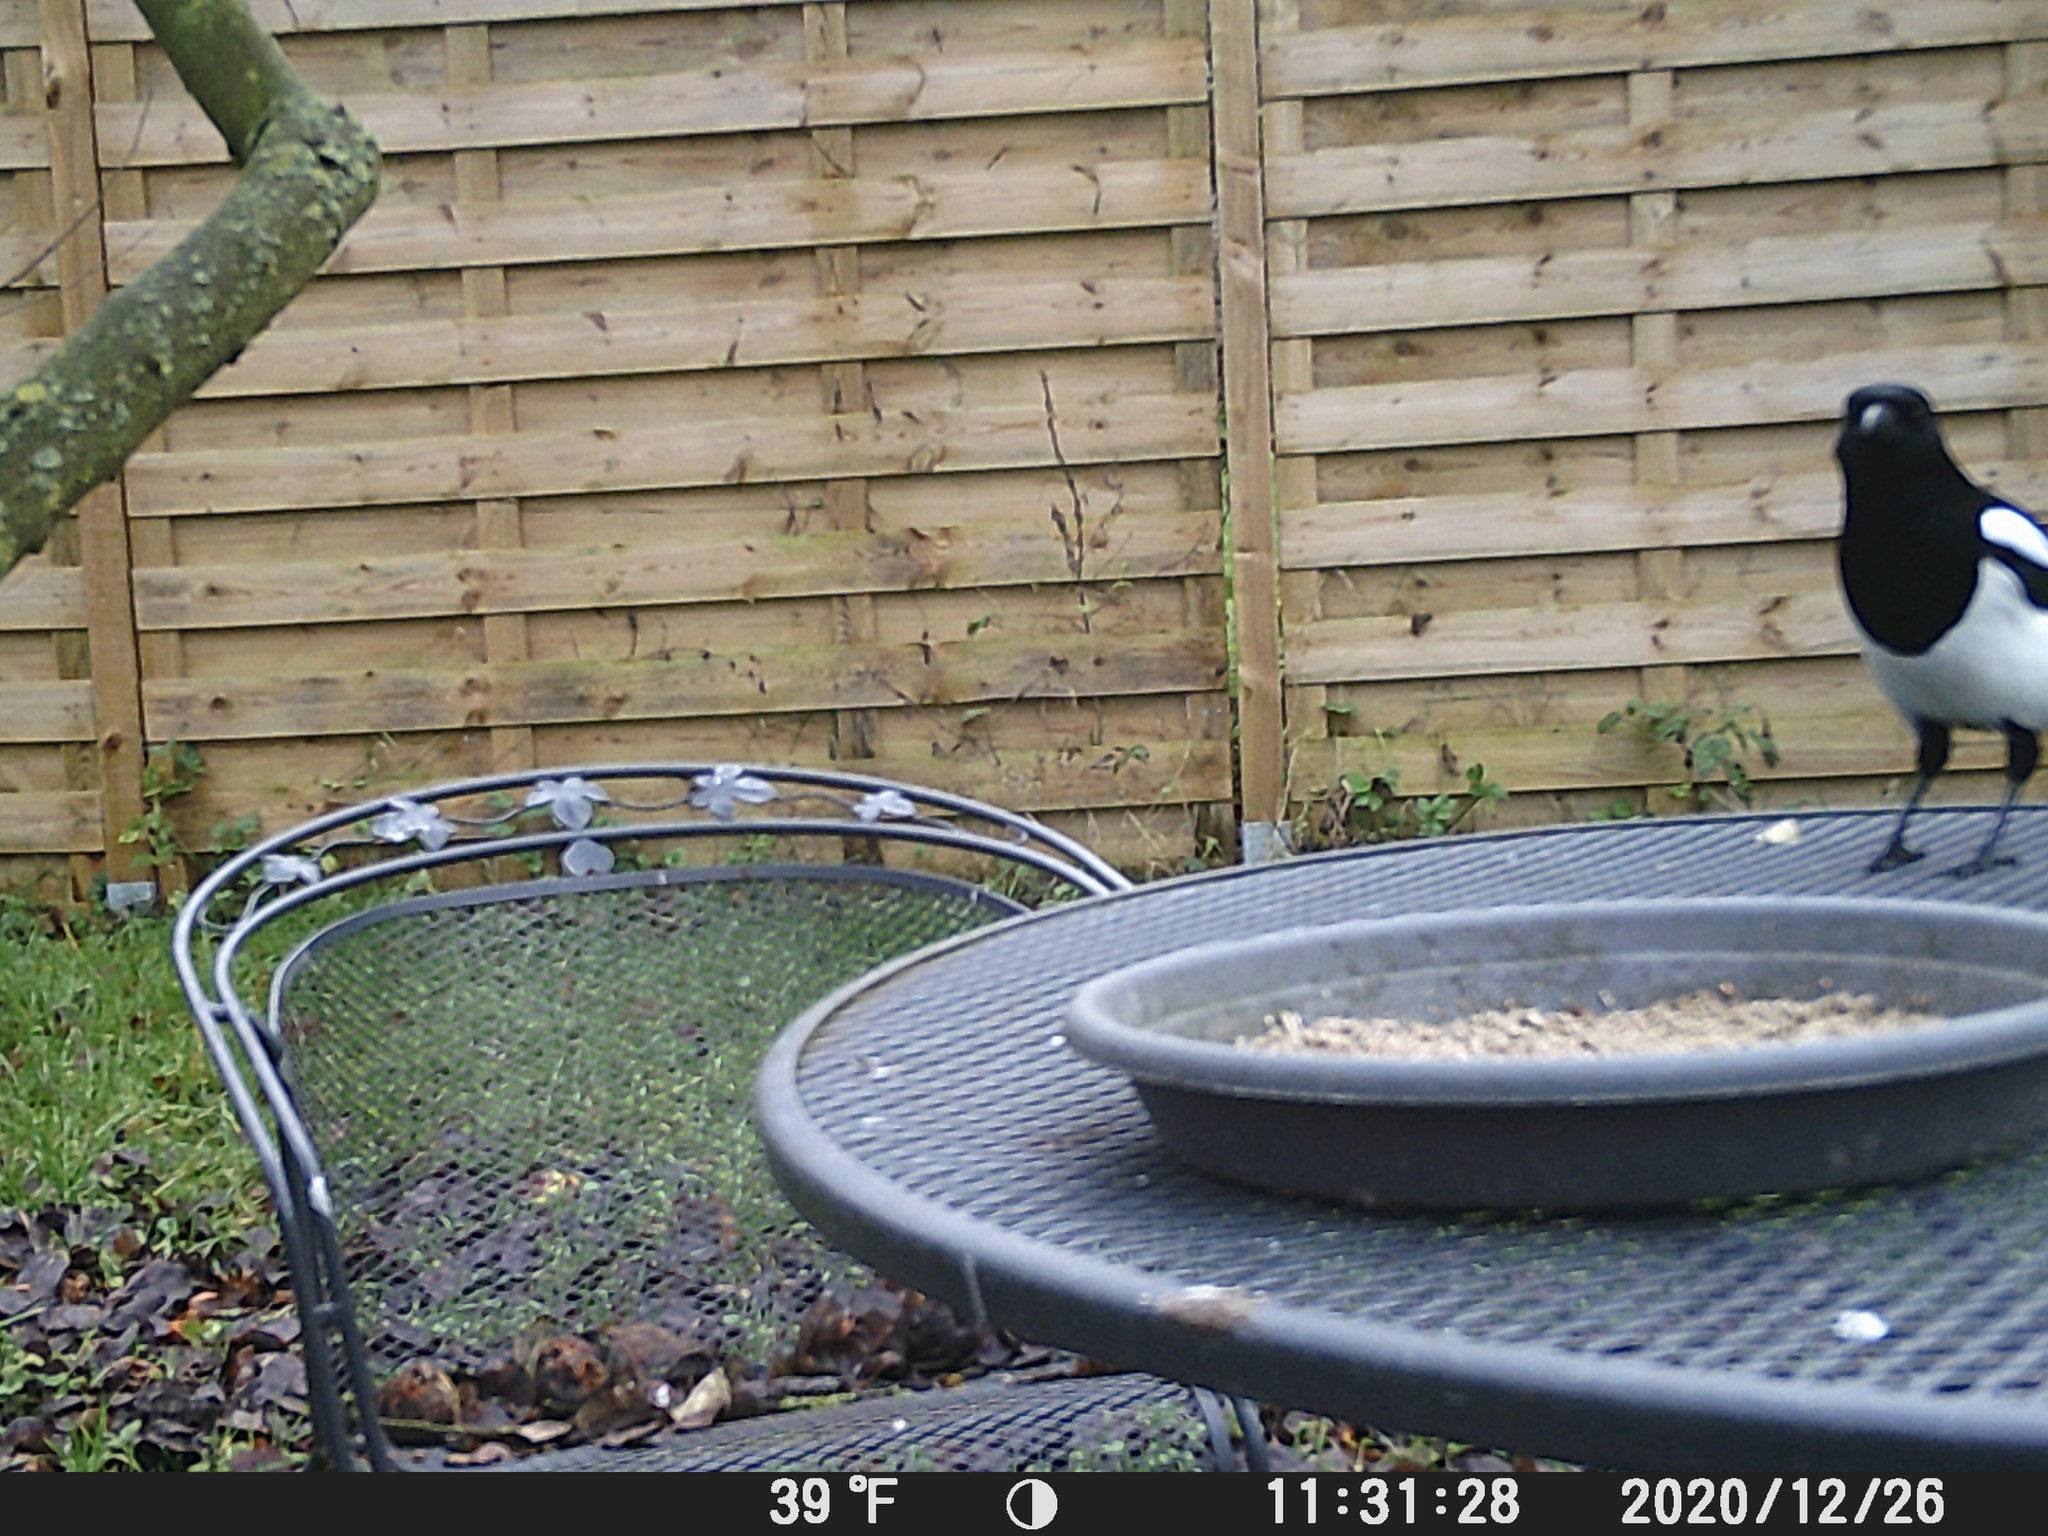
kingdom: Animalia
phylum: Chordata
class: Aves
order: Passeriformes
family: Corvidae
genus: Pica
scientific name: Pica pica
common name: Eurasian magpie
